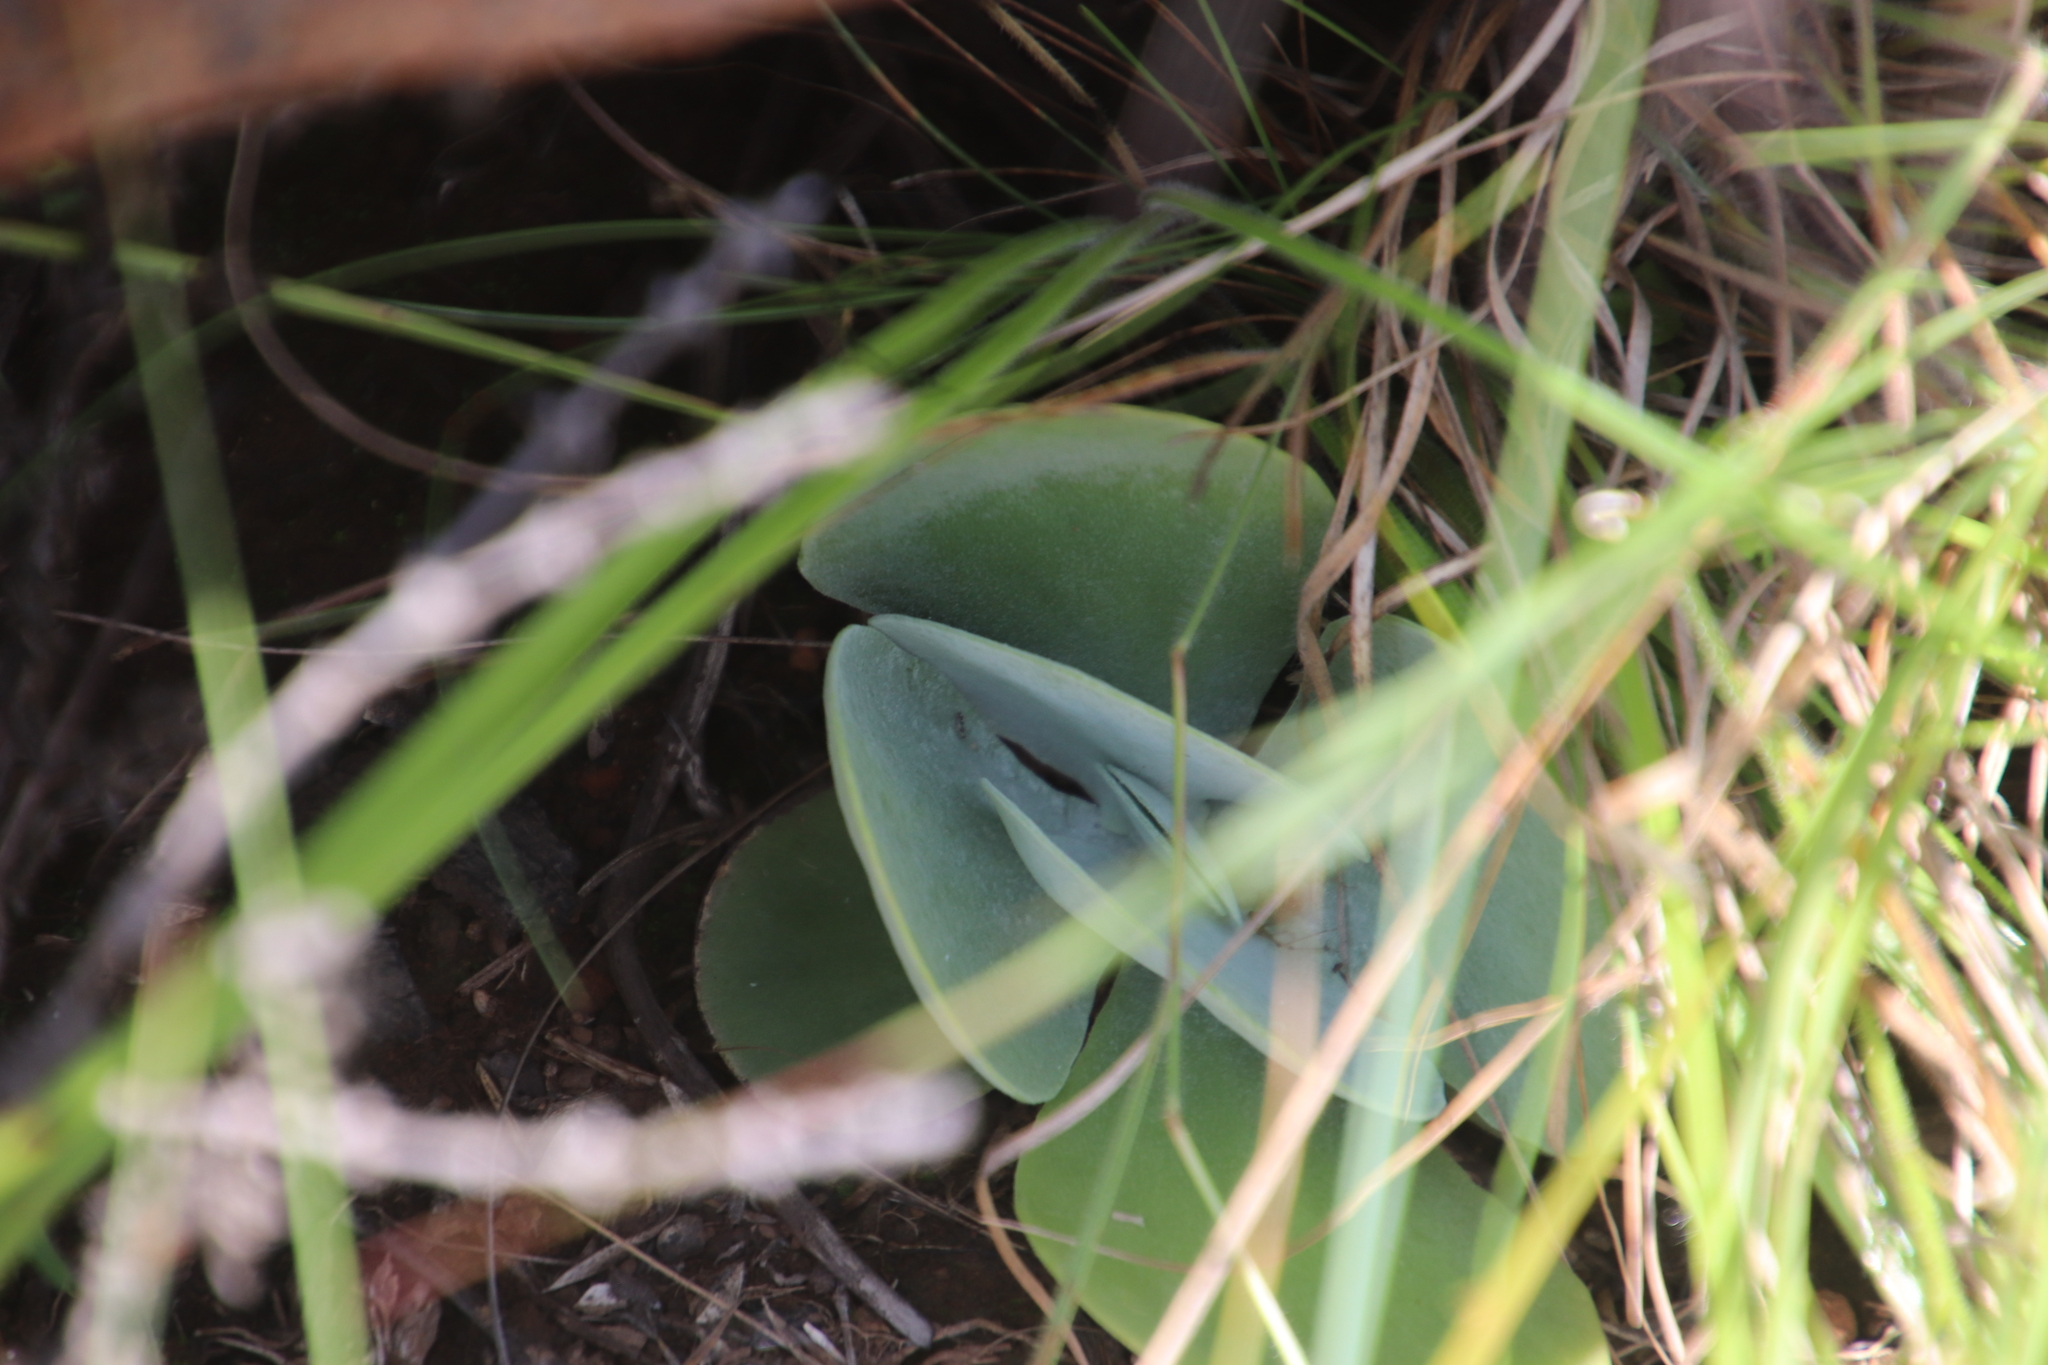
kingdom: Plantae
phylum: Tracheophyta
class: Magnoliopsida
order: Saxifragales
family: Crassulaceae
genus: Kalanchoe
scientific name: Kalanchoe thyrsiflora
